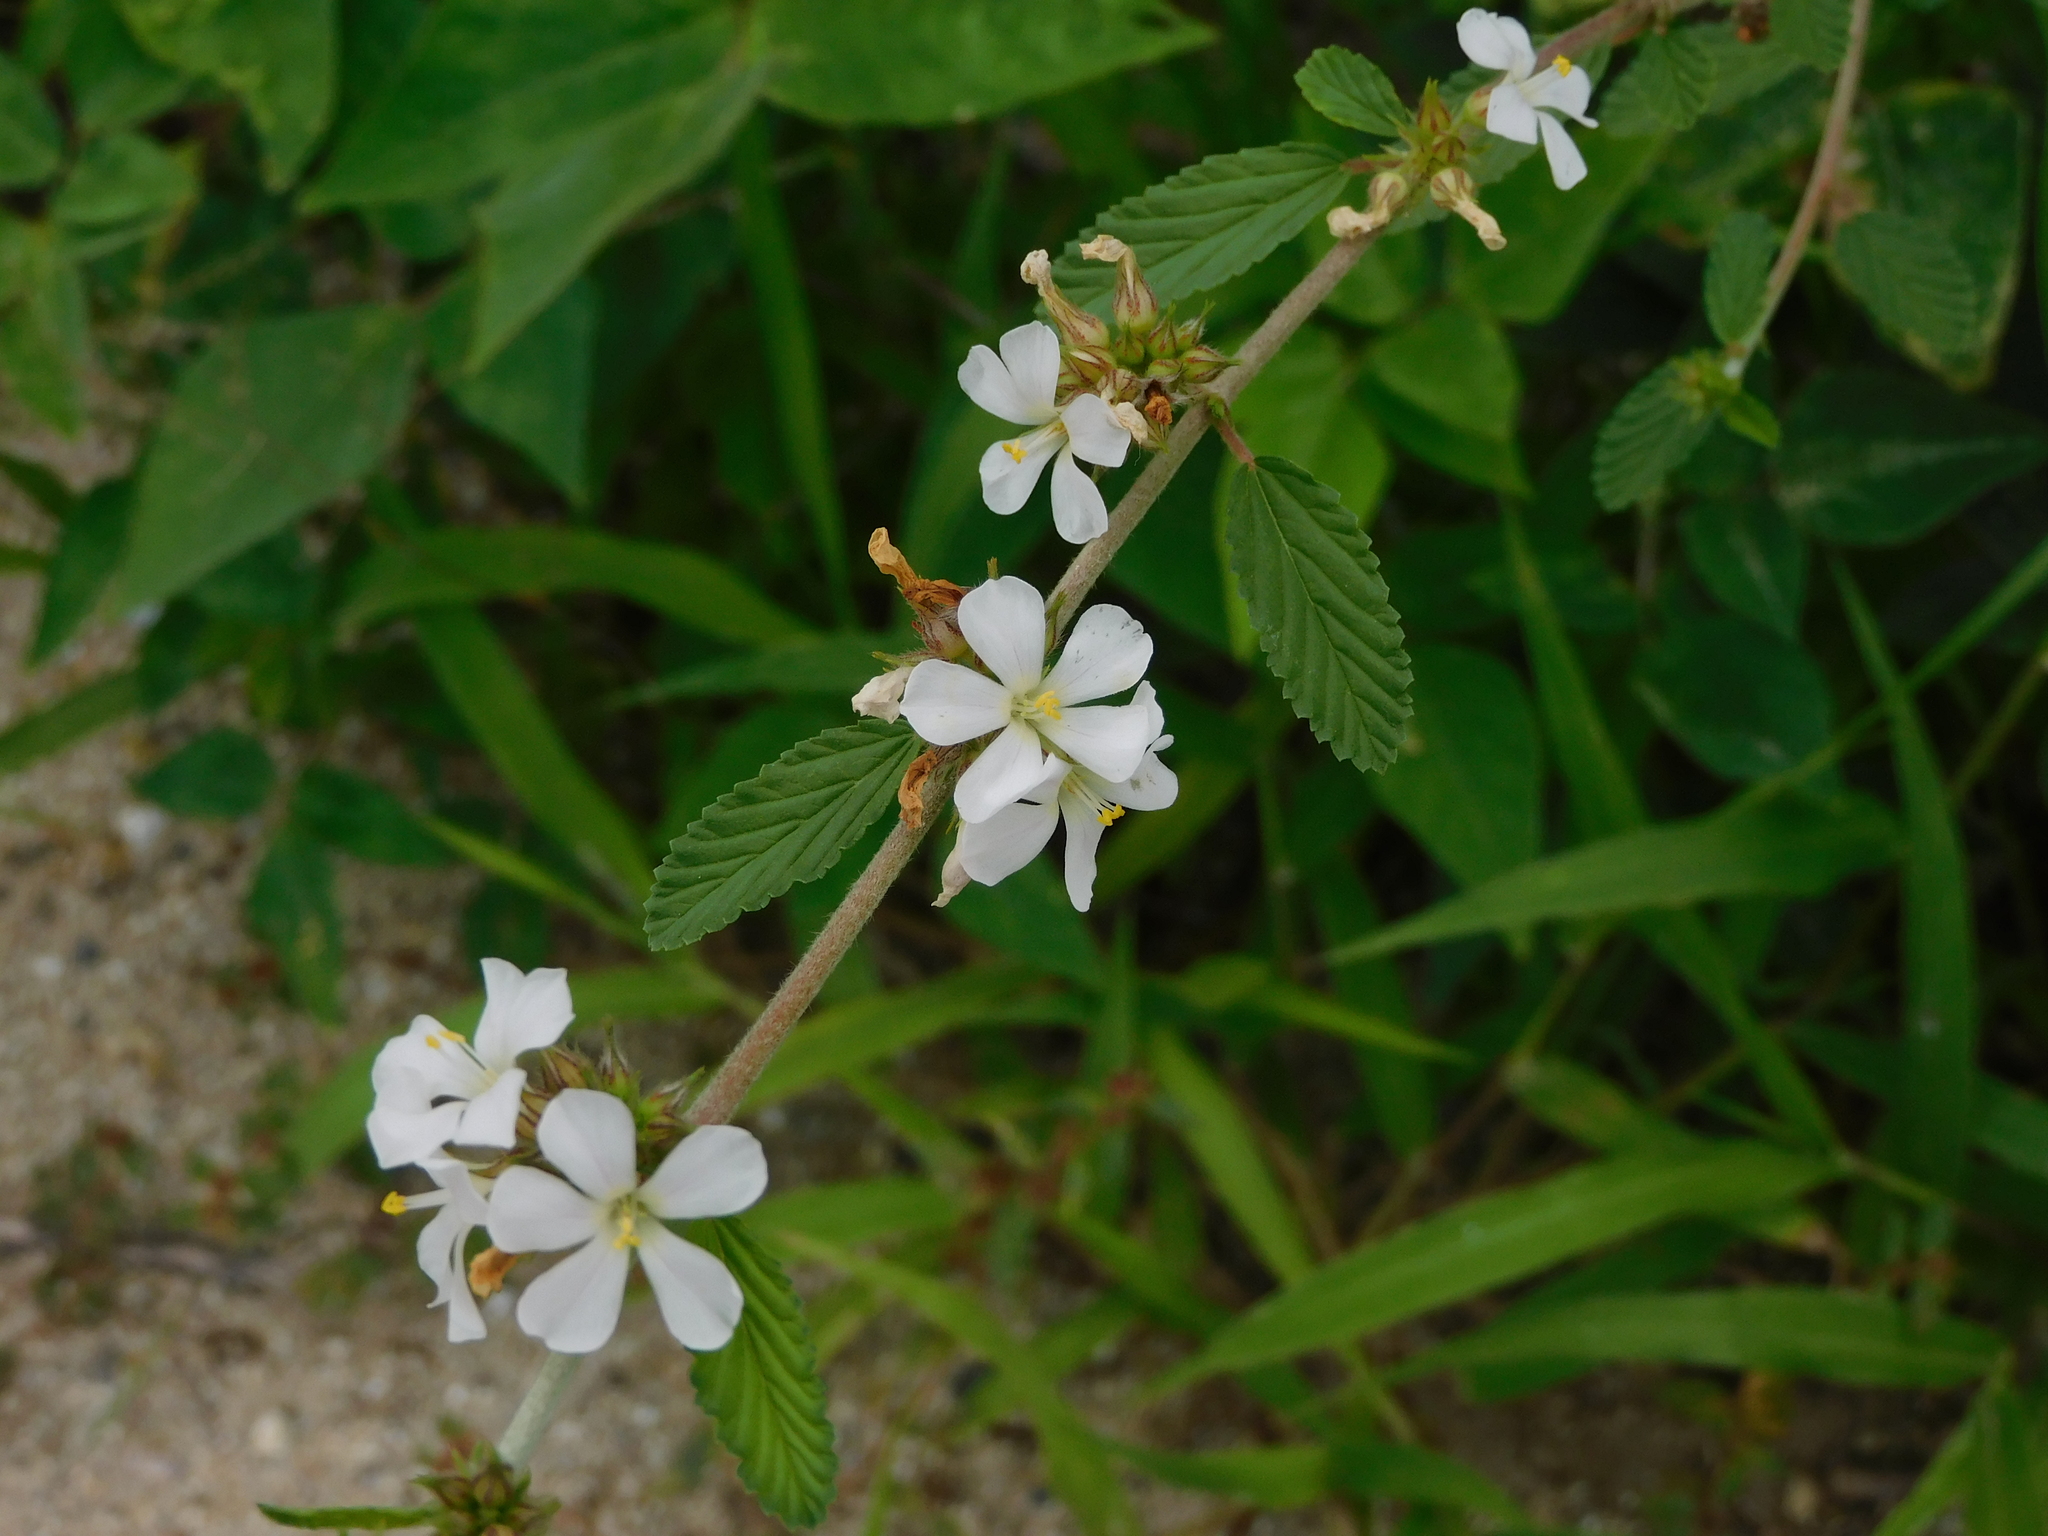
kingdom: Plantae
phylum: Tracheophyta
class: Magnoliopsida
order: Malvales
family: Malvaceae
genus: Melochia
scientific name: Melochia parvifolia
